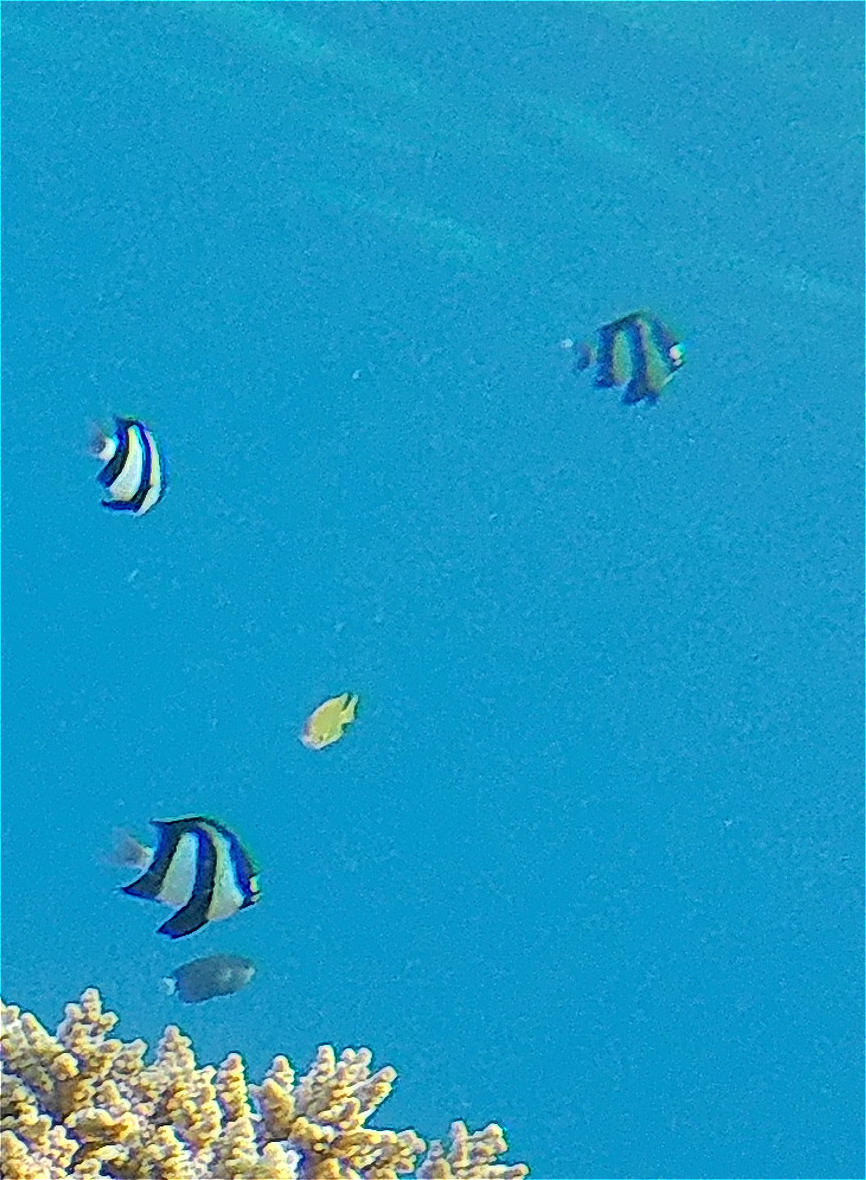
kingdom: Animalia
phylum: Chordata
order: Perciformes
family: Pomacentridae
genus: Dascyllus
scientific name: Dascyllus abudafur
